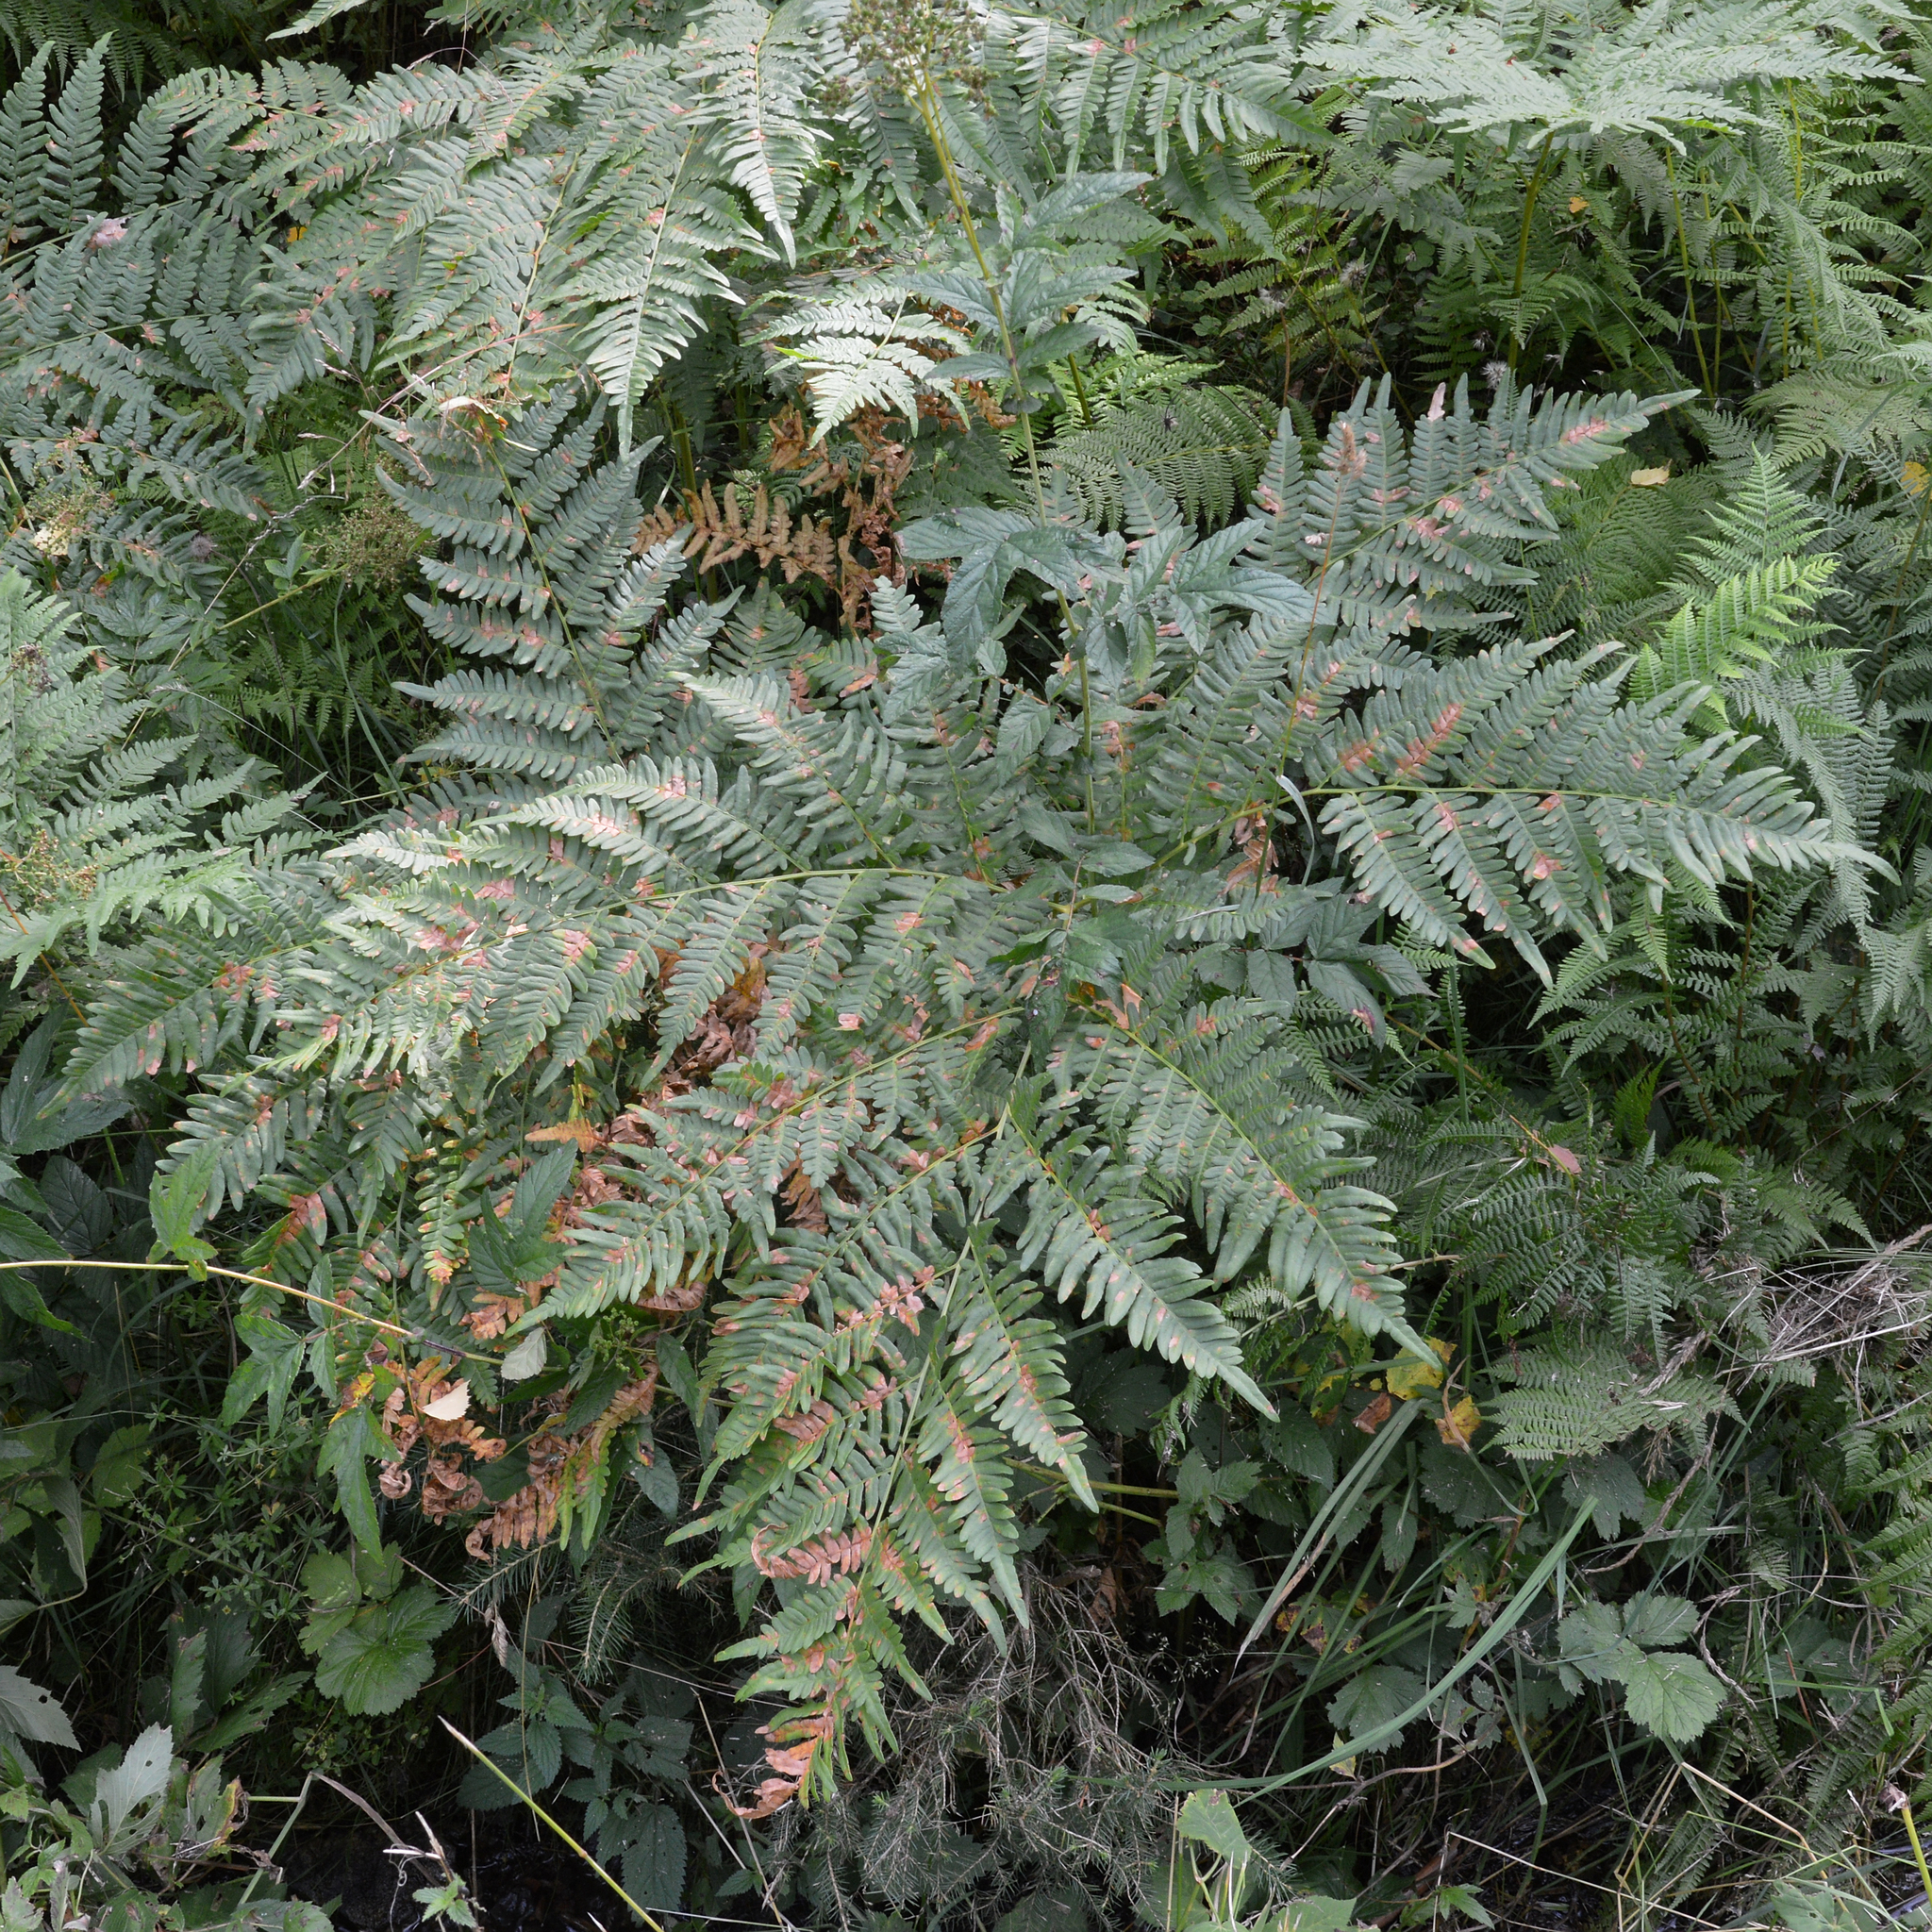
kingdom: Plantae
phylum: Tracheophyta
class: Polypodiopsida
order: Polypodiales
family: Dennstaedtiaceae
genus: Pteridium
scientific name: Pteridium aquilinum
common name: Bracken
